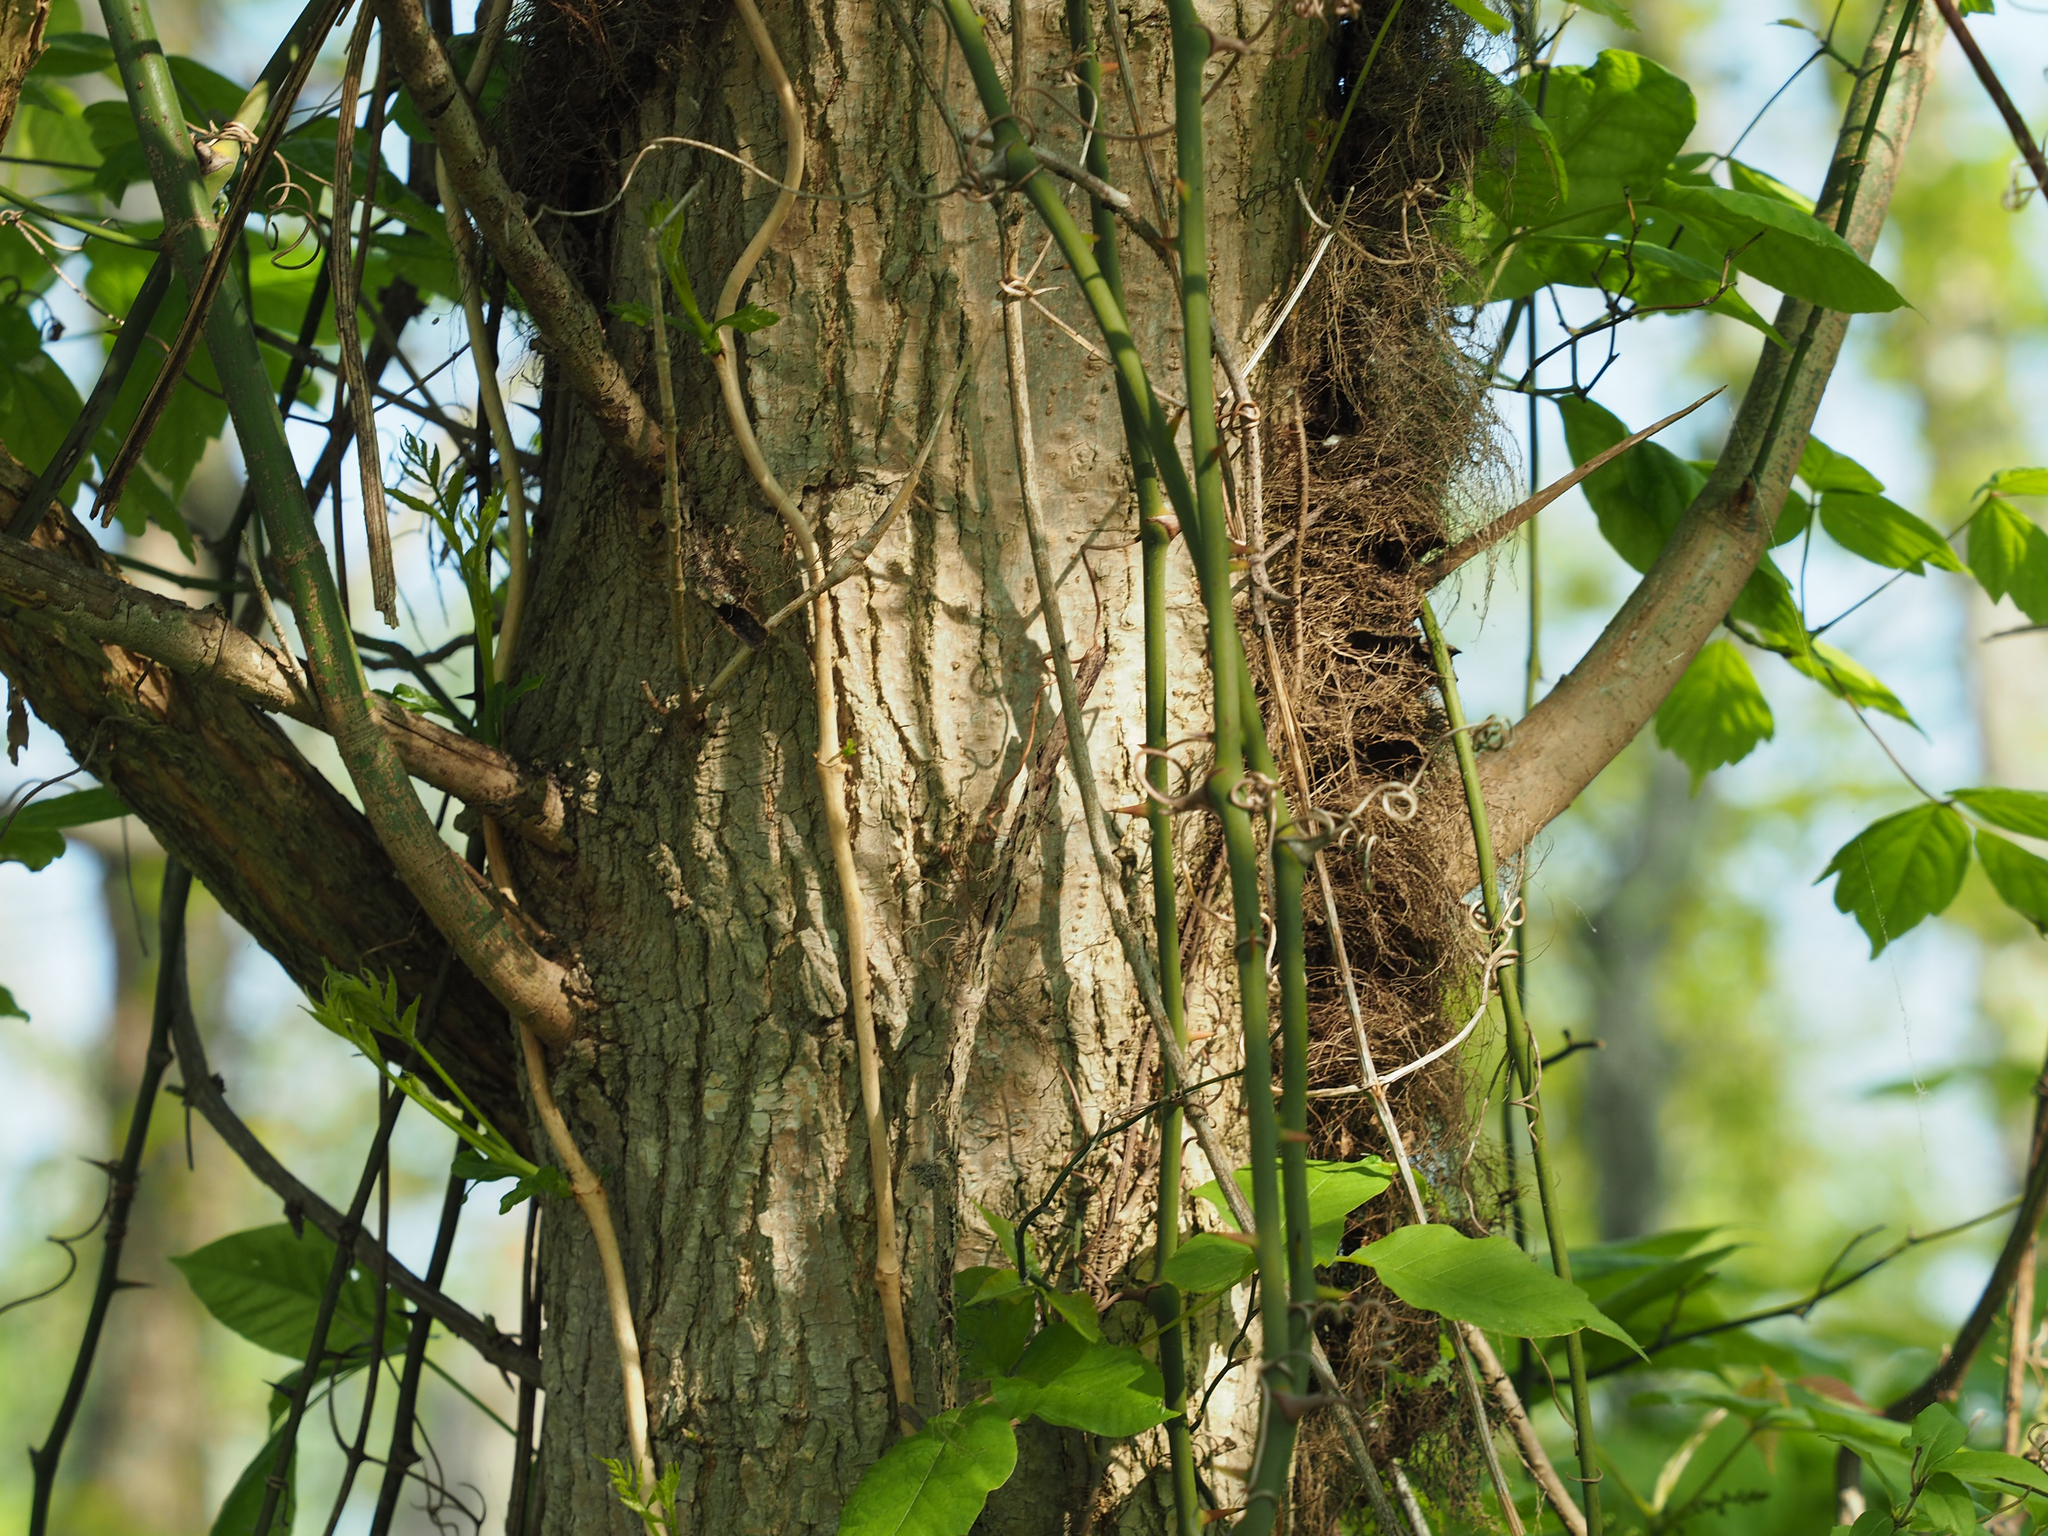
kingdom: Plantae
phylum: Tracheophyta
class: Magnoliopsida
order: Sapindales
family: Sapindaceae
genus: Acer
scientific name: Acer negundo
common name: Ashleaf maple
